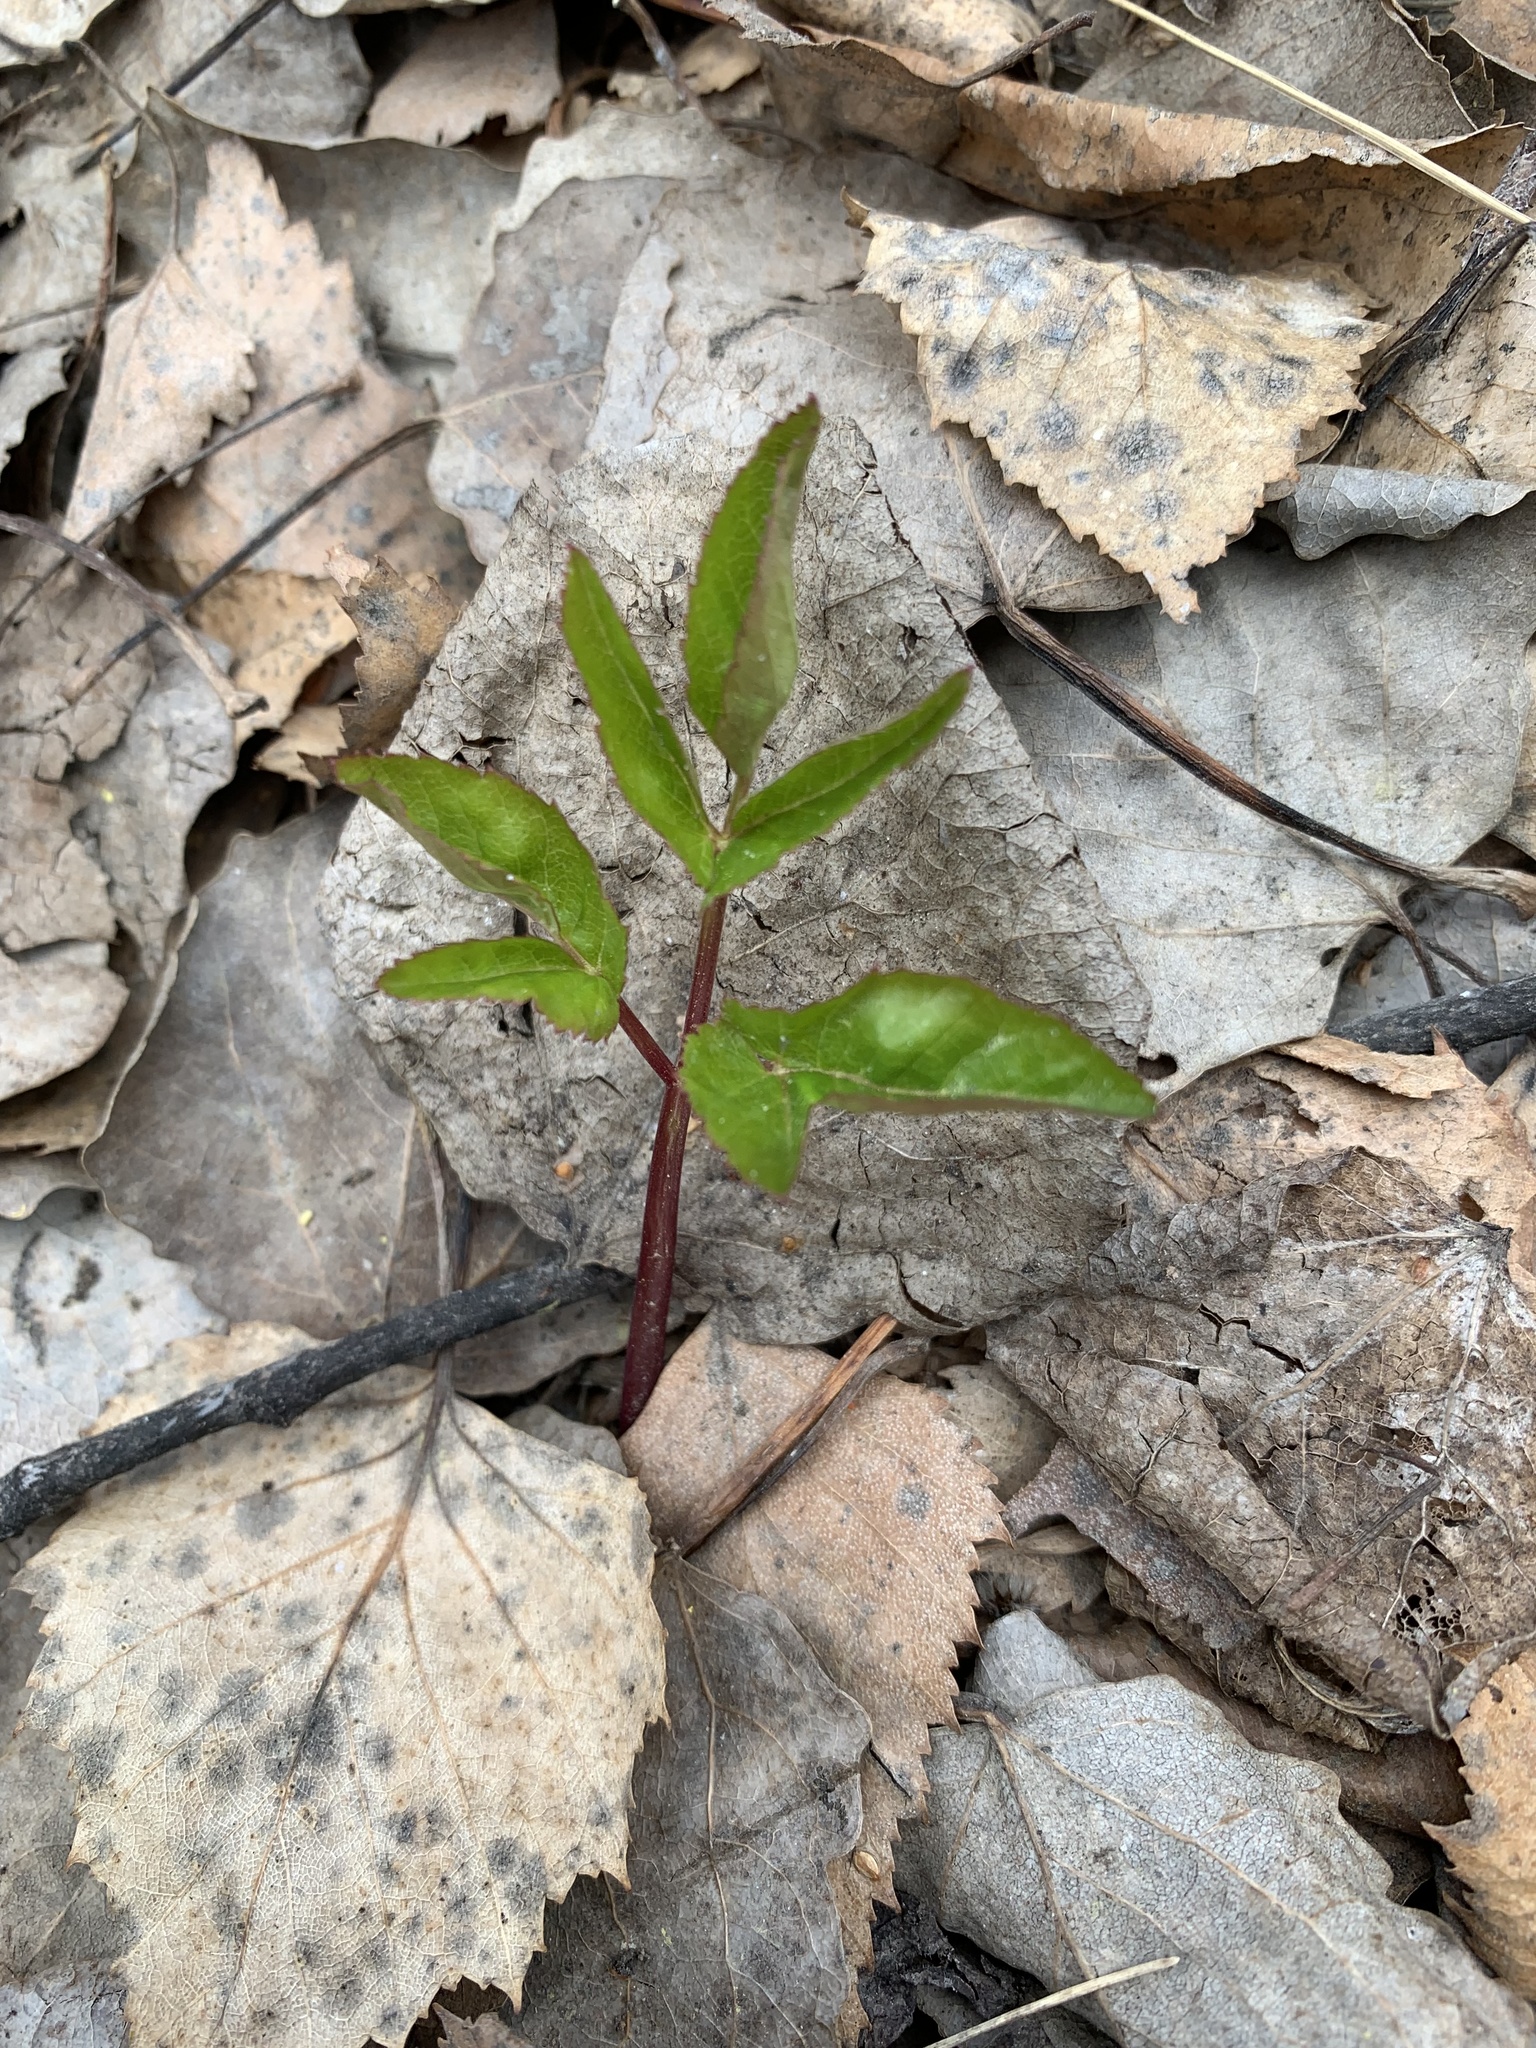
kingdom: Plantae
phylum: Tracheophyta
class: Magnoliopsida
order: Apiales
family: Apiaceae
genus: Aegopodium
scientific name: Aegopodium podagraria
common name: Ground-elder
